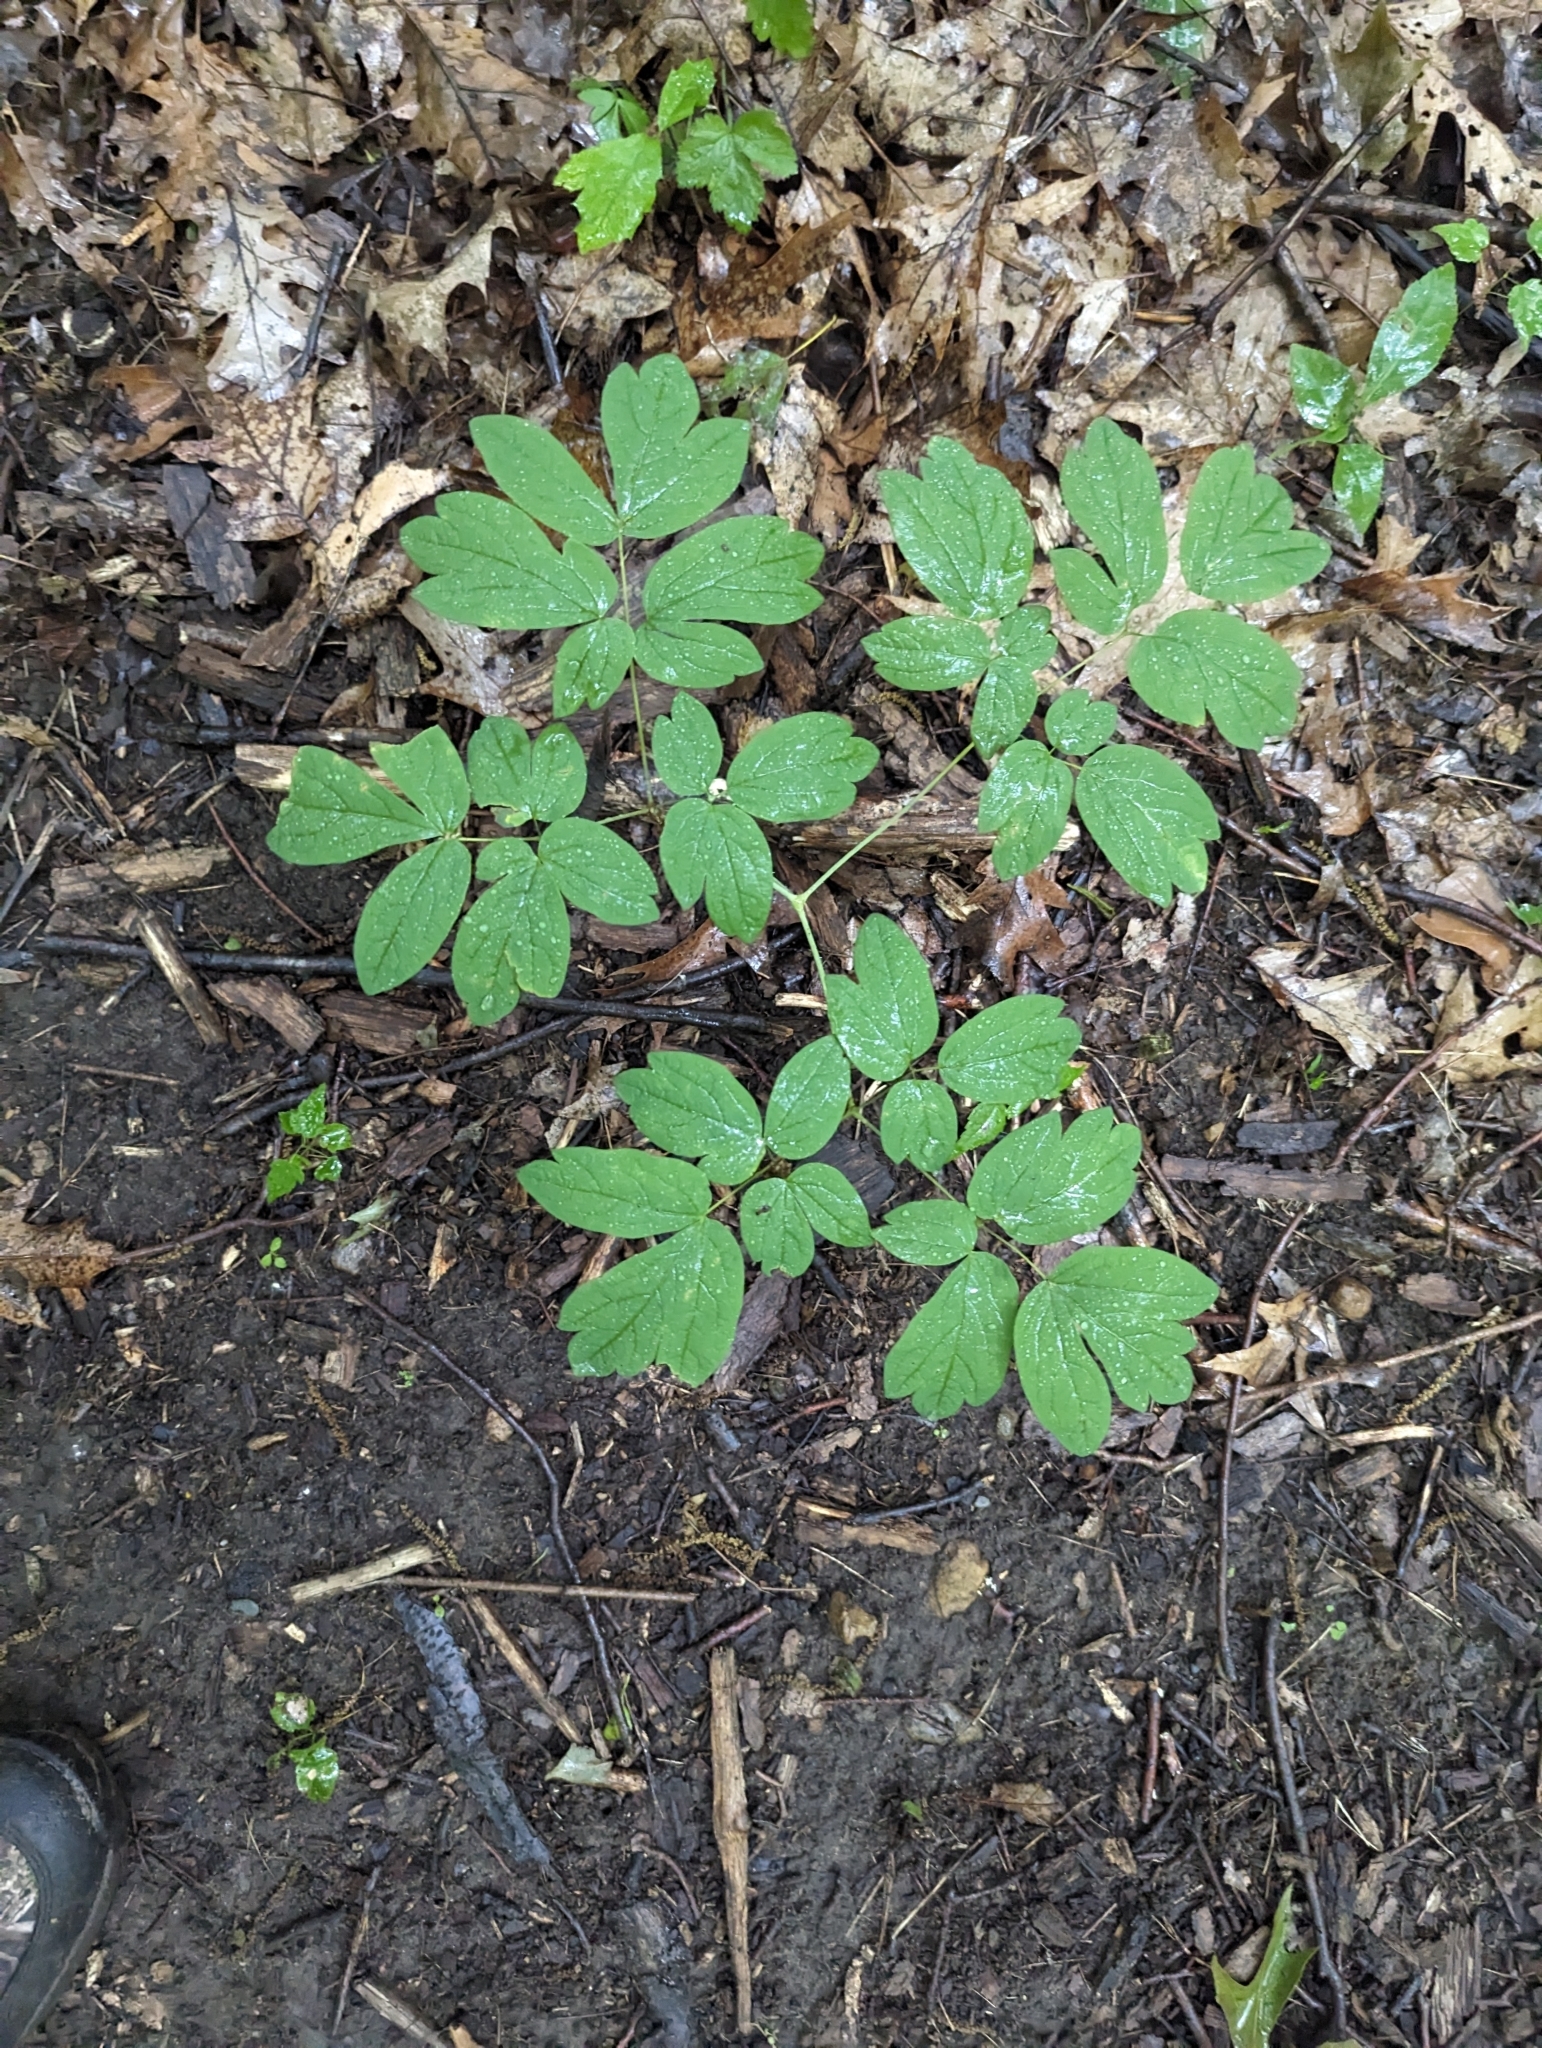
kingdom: Plantae
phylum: Tracheophyta
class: Magnoliopsida
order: Ranunculales
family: Berberidaceae
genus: Caulophyllum
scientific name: Caulophyllum thalictroides
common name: Blue cohosh
